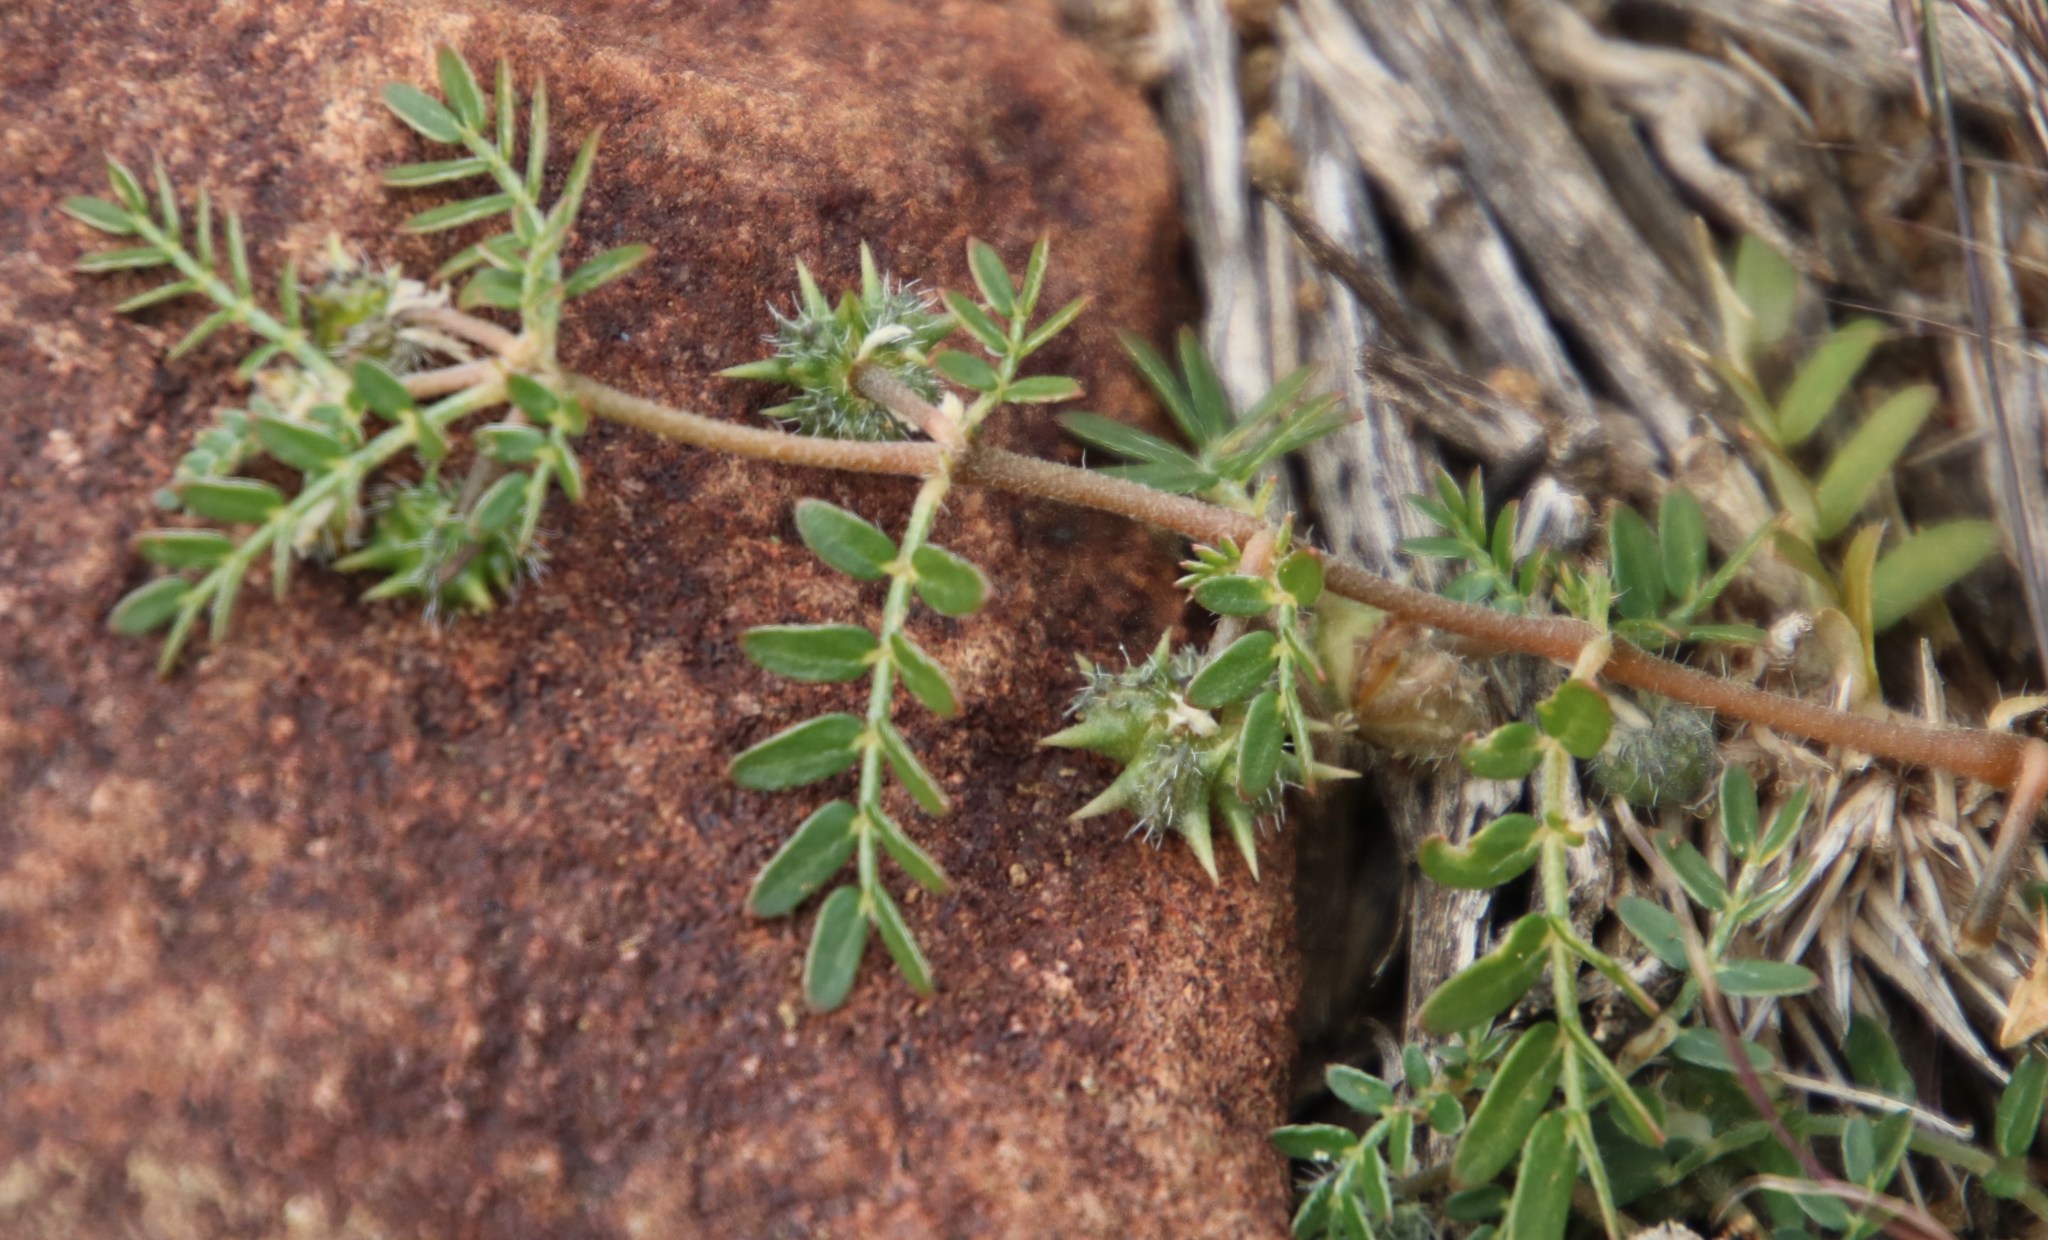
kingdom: Plantae
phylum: Tracheophyta
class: Magnoliopsida
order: Zygophyllales
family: Zygophyllaceae
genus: Tribulus
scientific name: Tribulus terrestris
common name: Puncturevine
